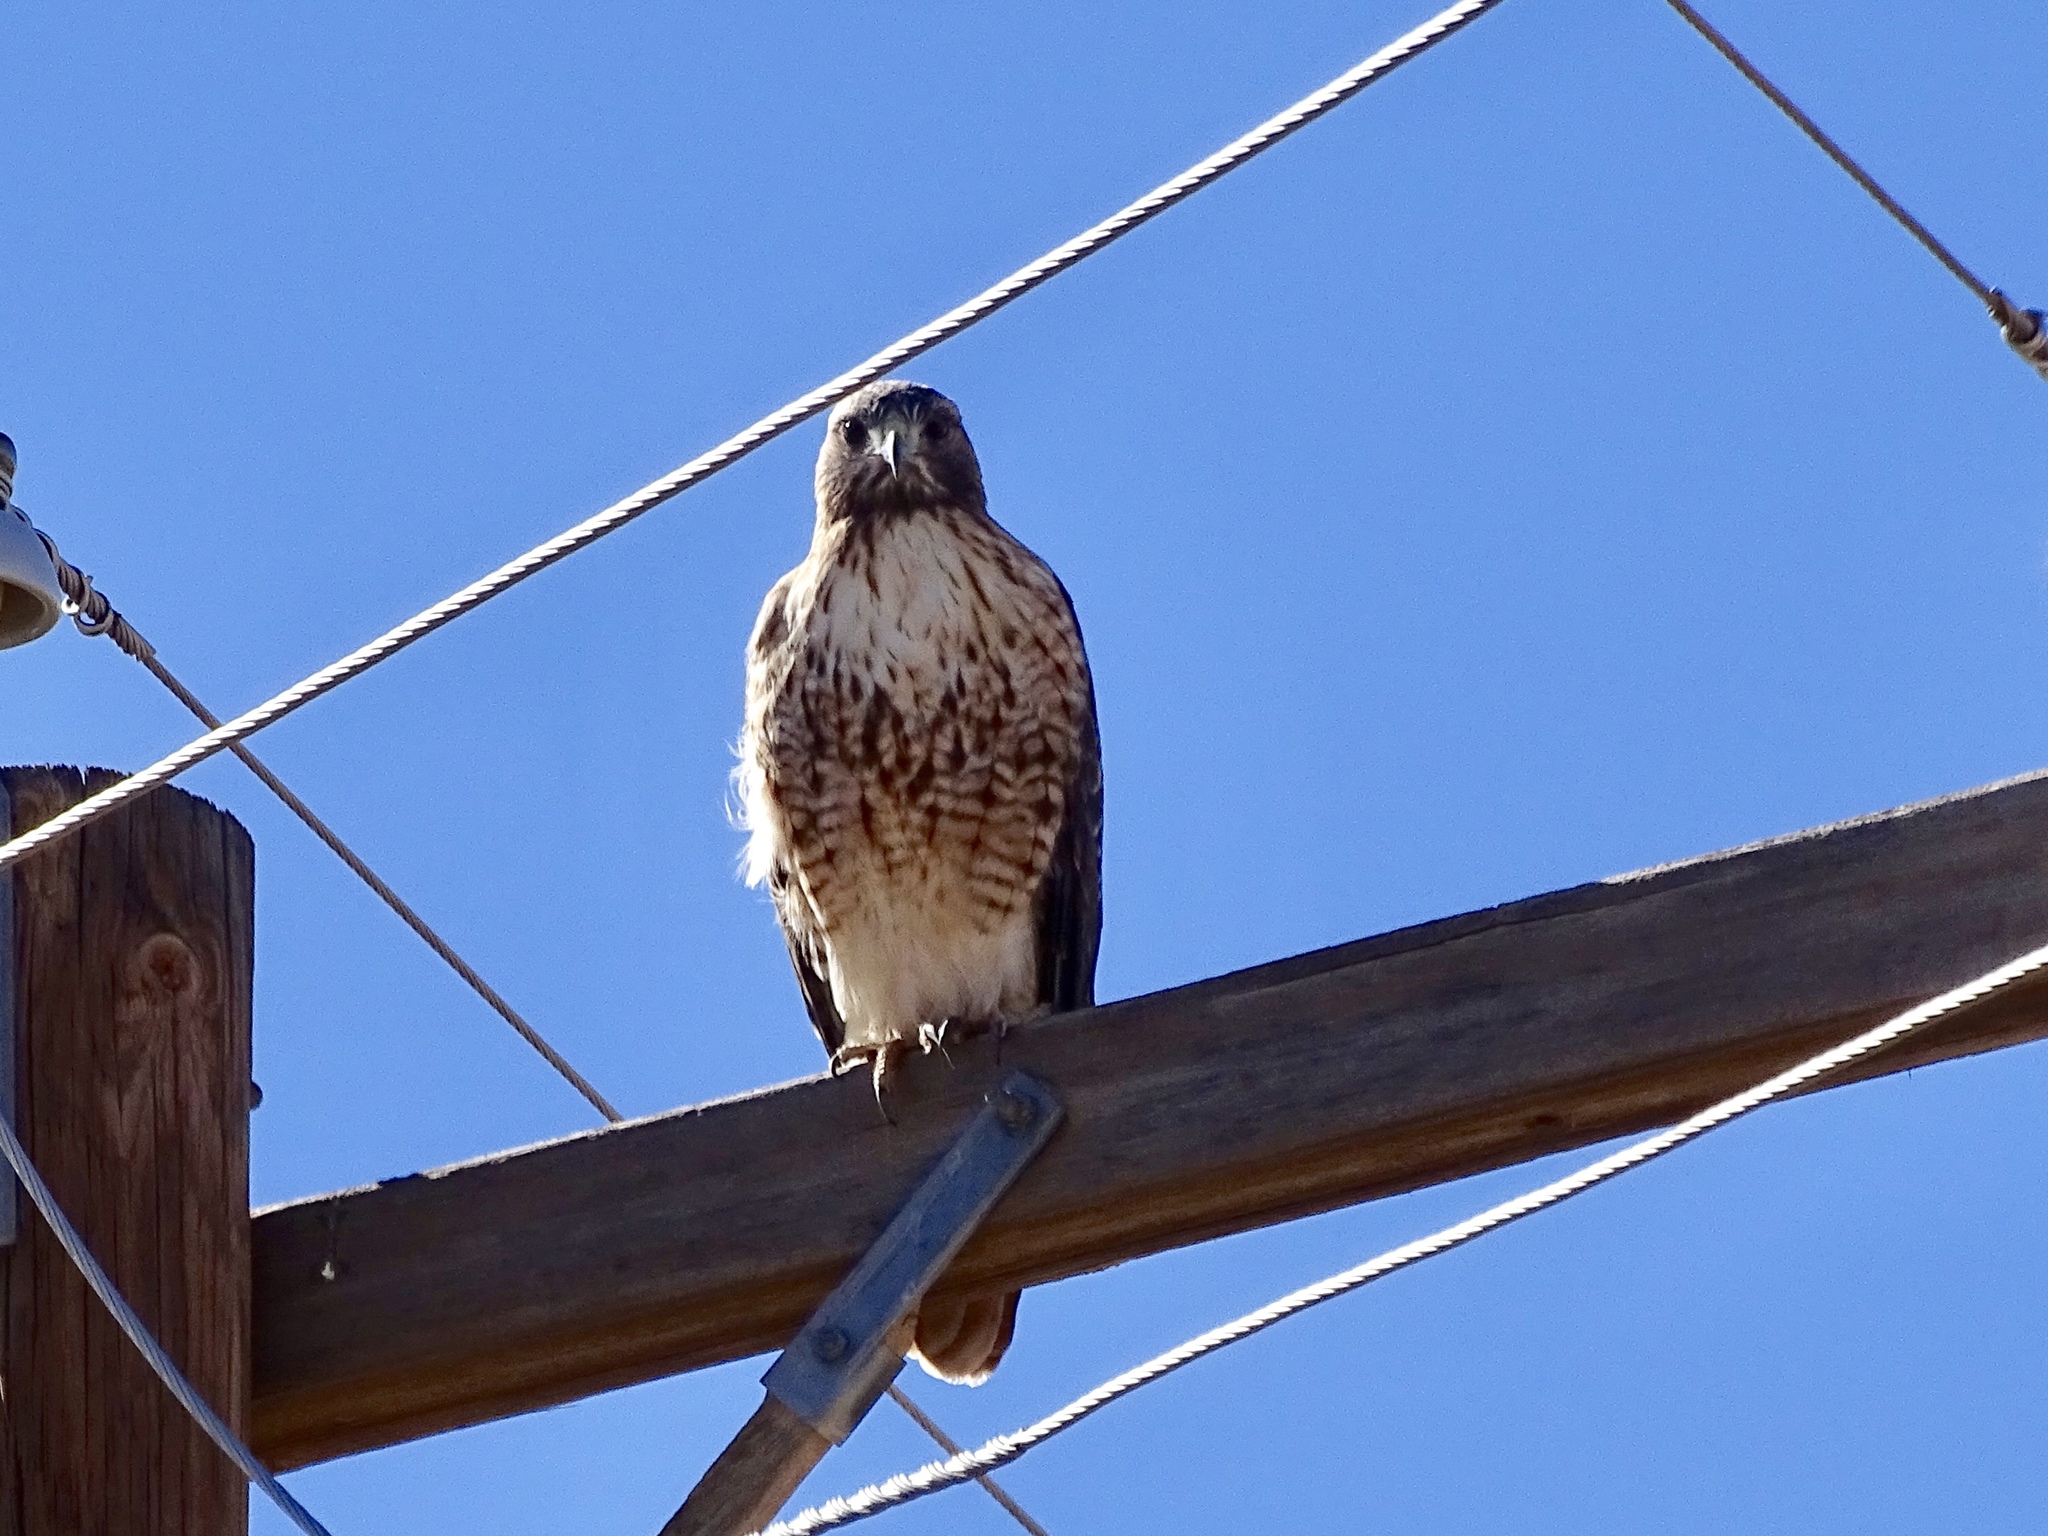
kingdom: Animalia
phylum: Chordata
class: Aves
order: Accipitriformes
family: Accipitridae
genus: Buteo
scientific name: Buteo jamaicensis
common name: Red-tailed hawk
